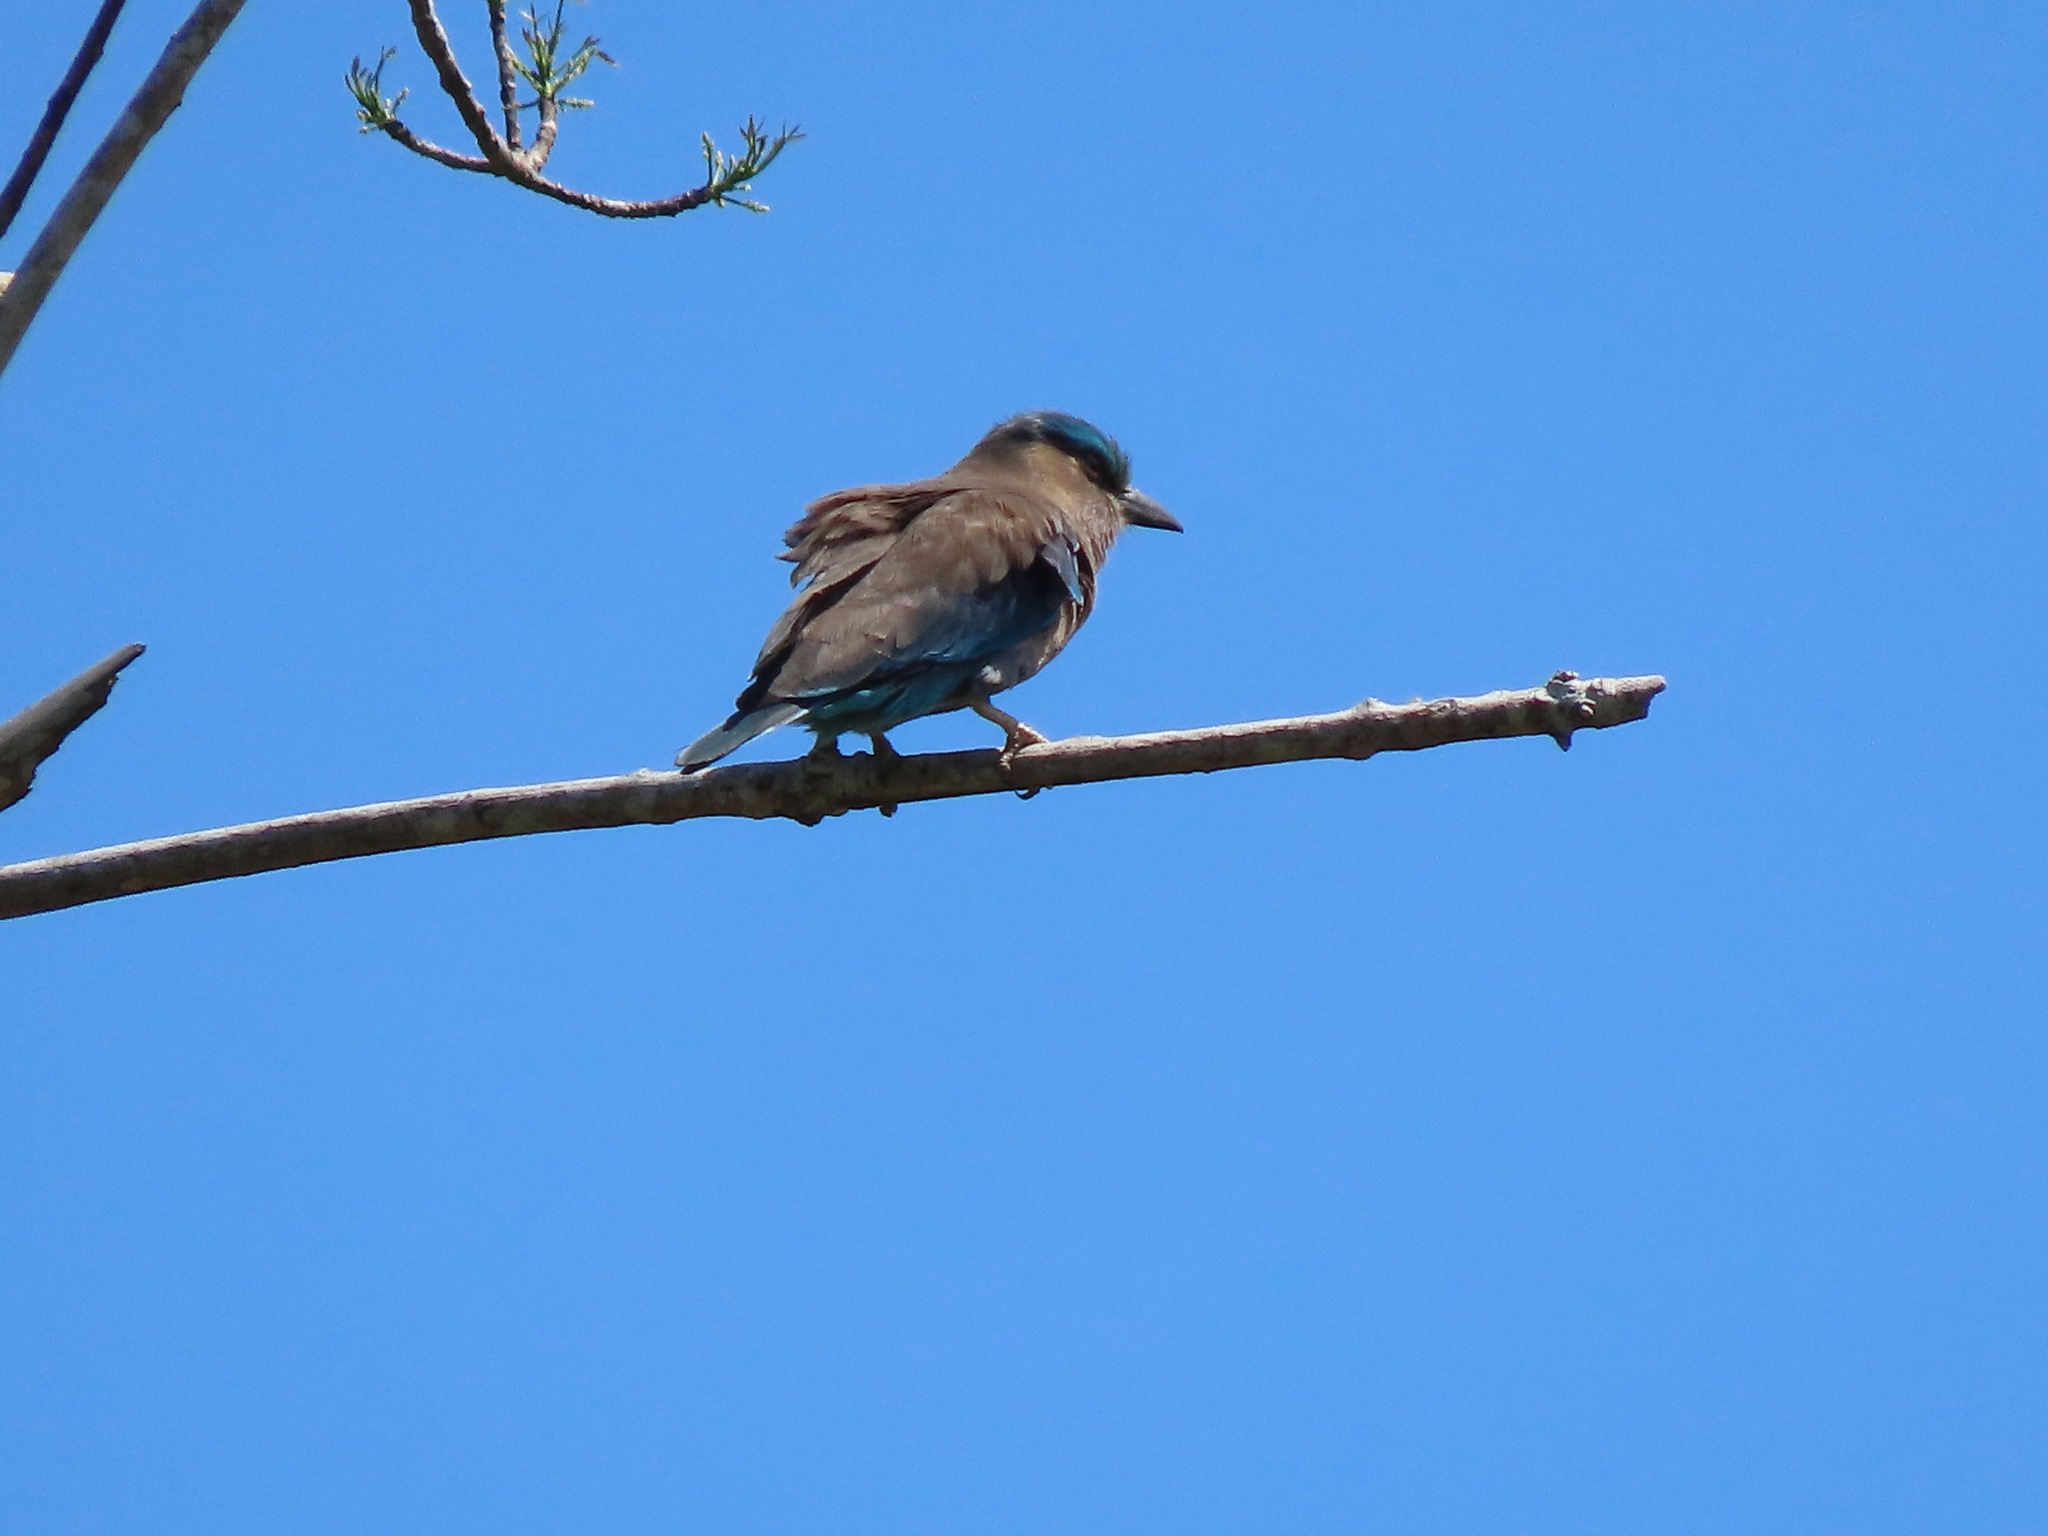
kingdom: Animalia
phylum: Chordata
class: Aves
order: Coraciiformes
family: Coraciidae
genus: Coracias
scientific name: Coracias affinis
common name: Indochinese roller
